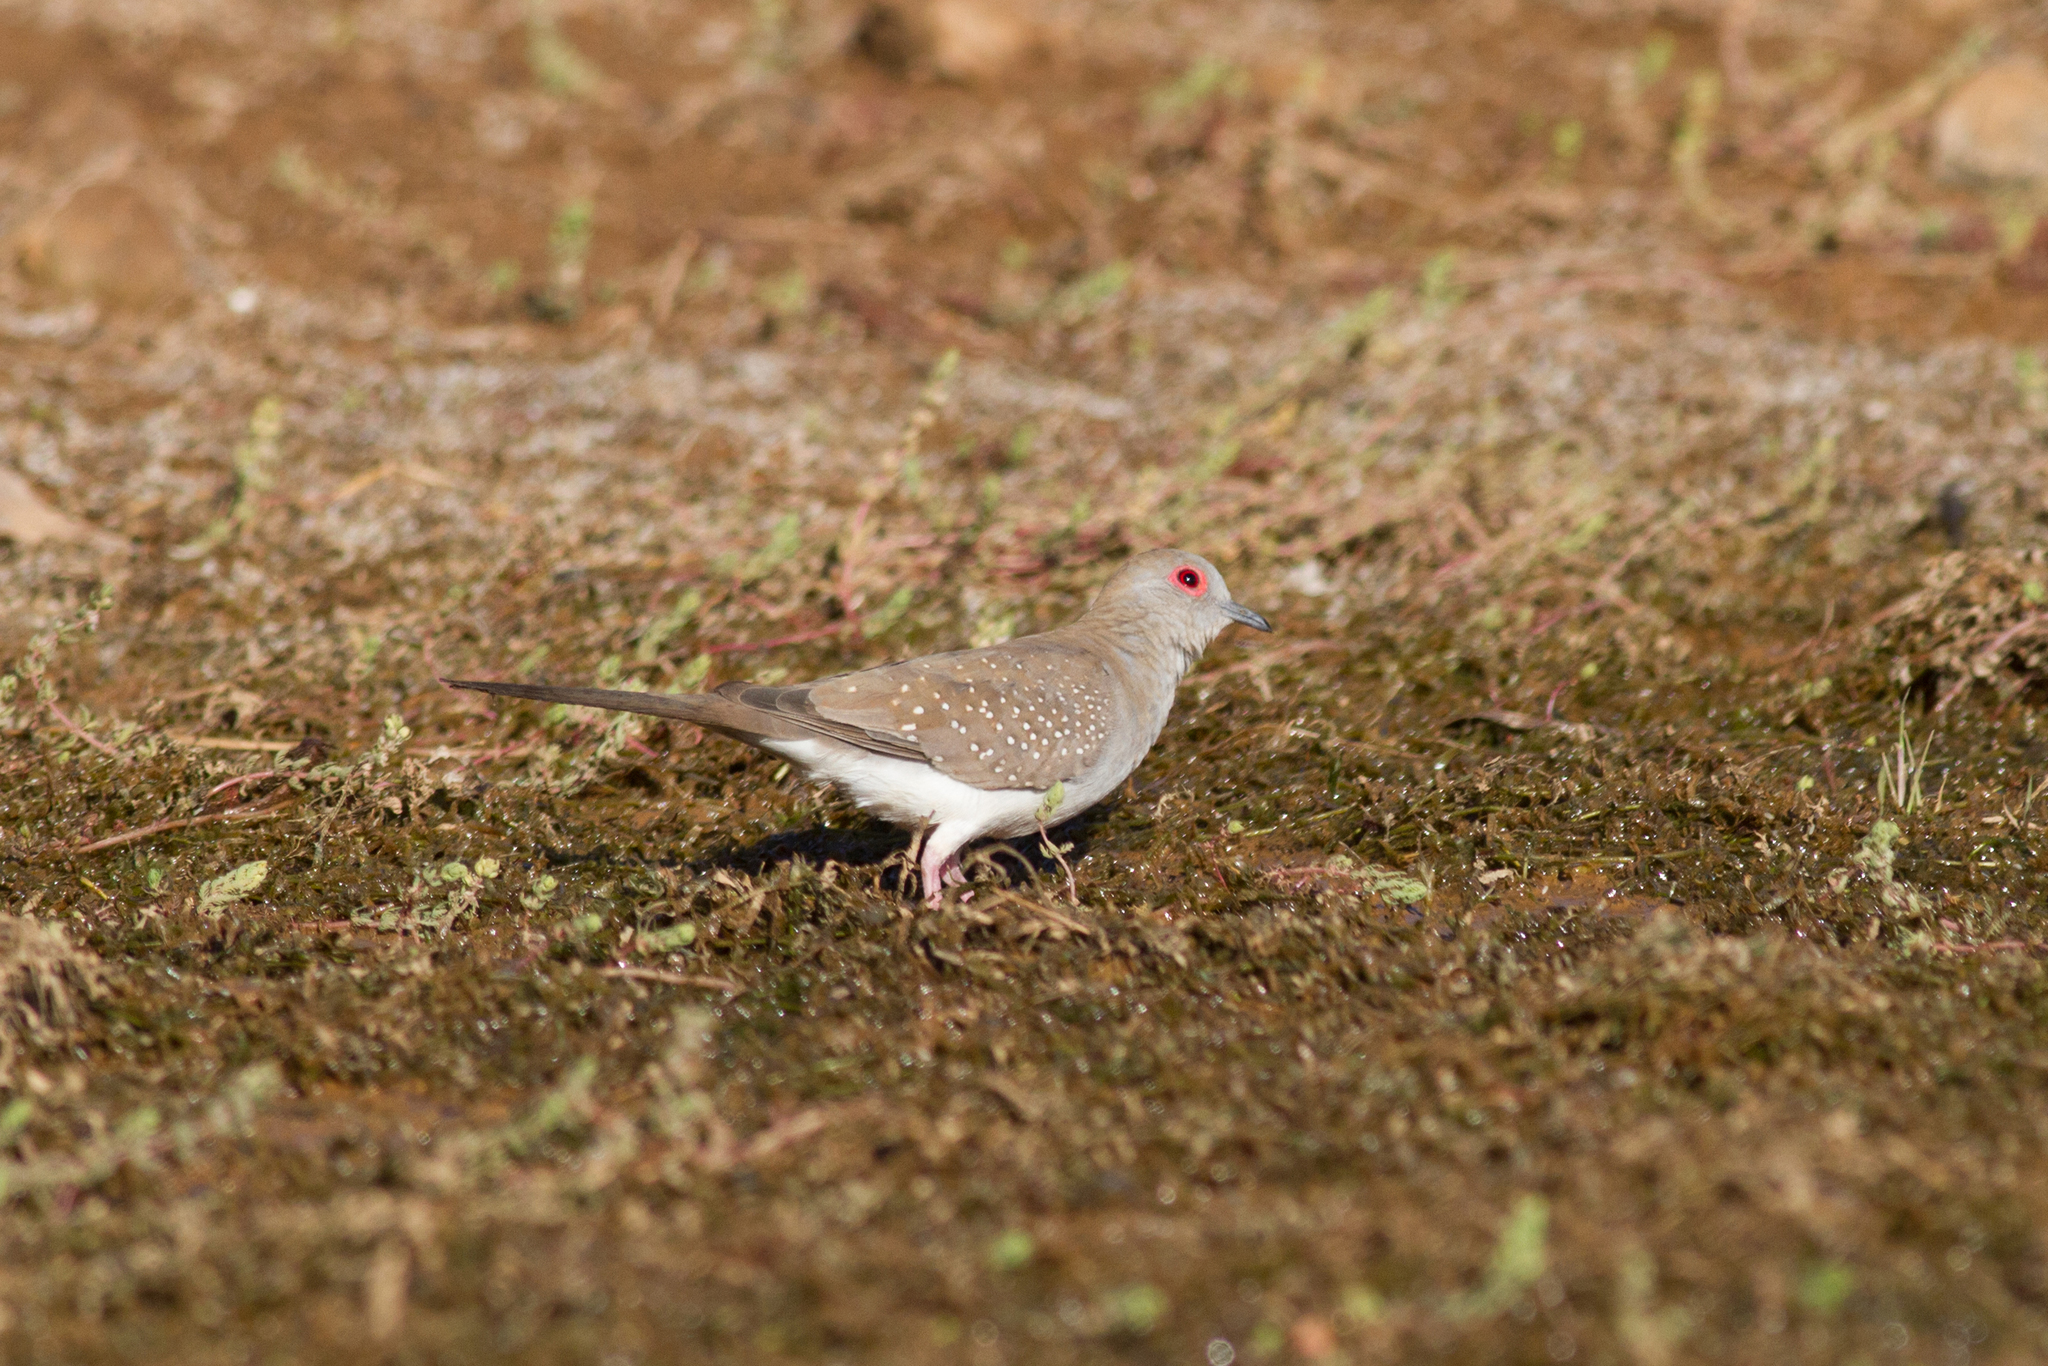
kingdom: Animalia
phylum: Chordata
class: Aves
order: Columbiformes
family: Columbidae
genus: Geopelia
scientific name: Geopelia cuneata
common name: Diamond dove
